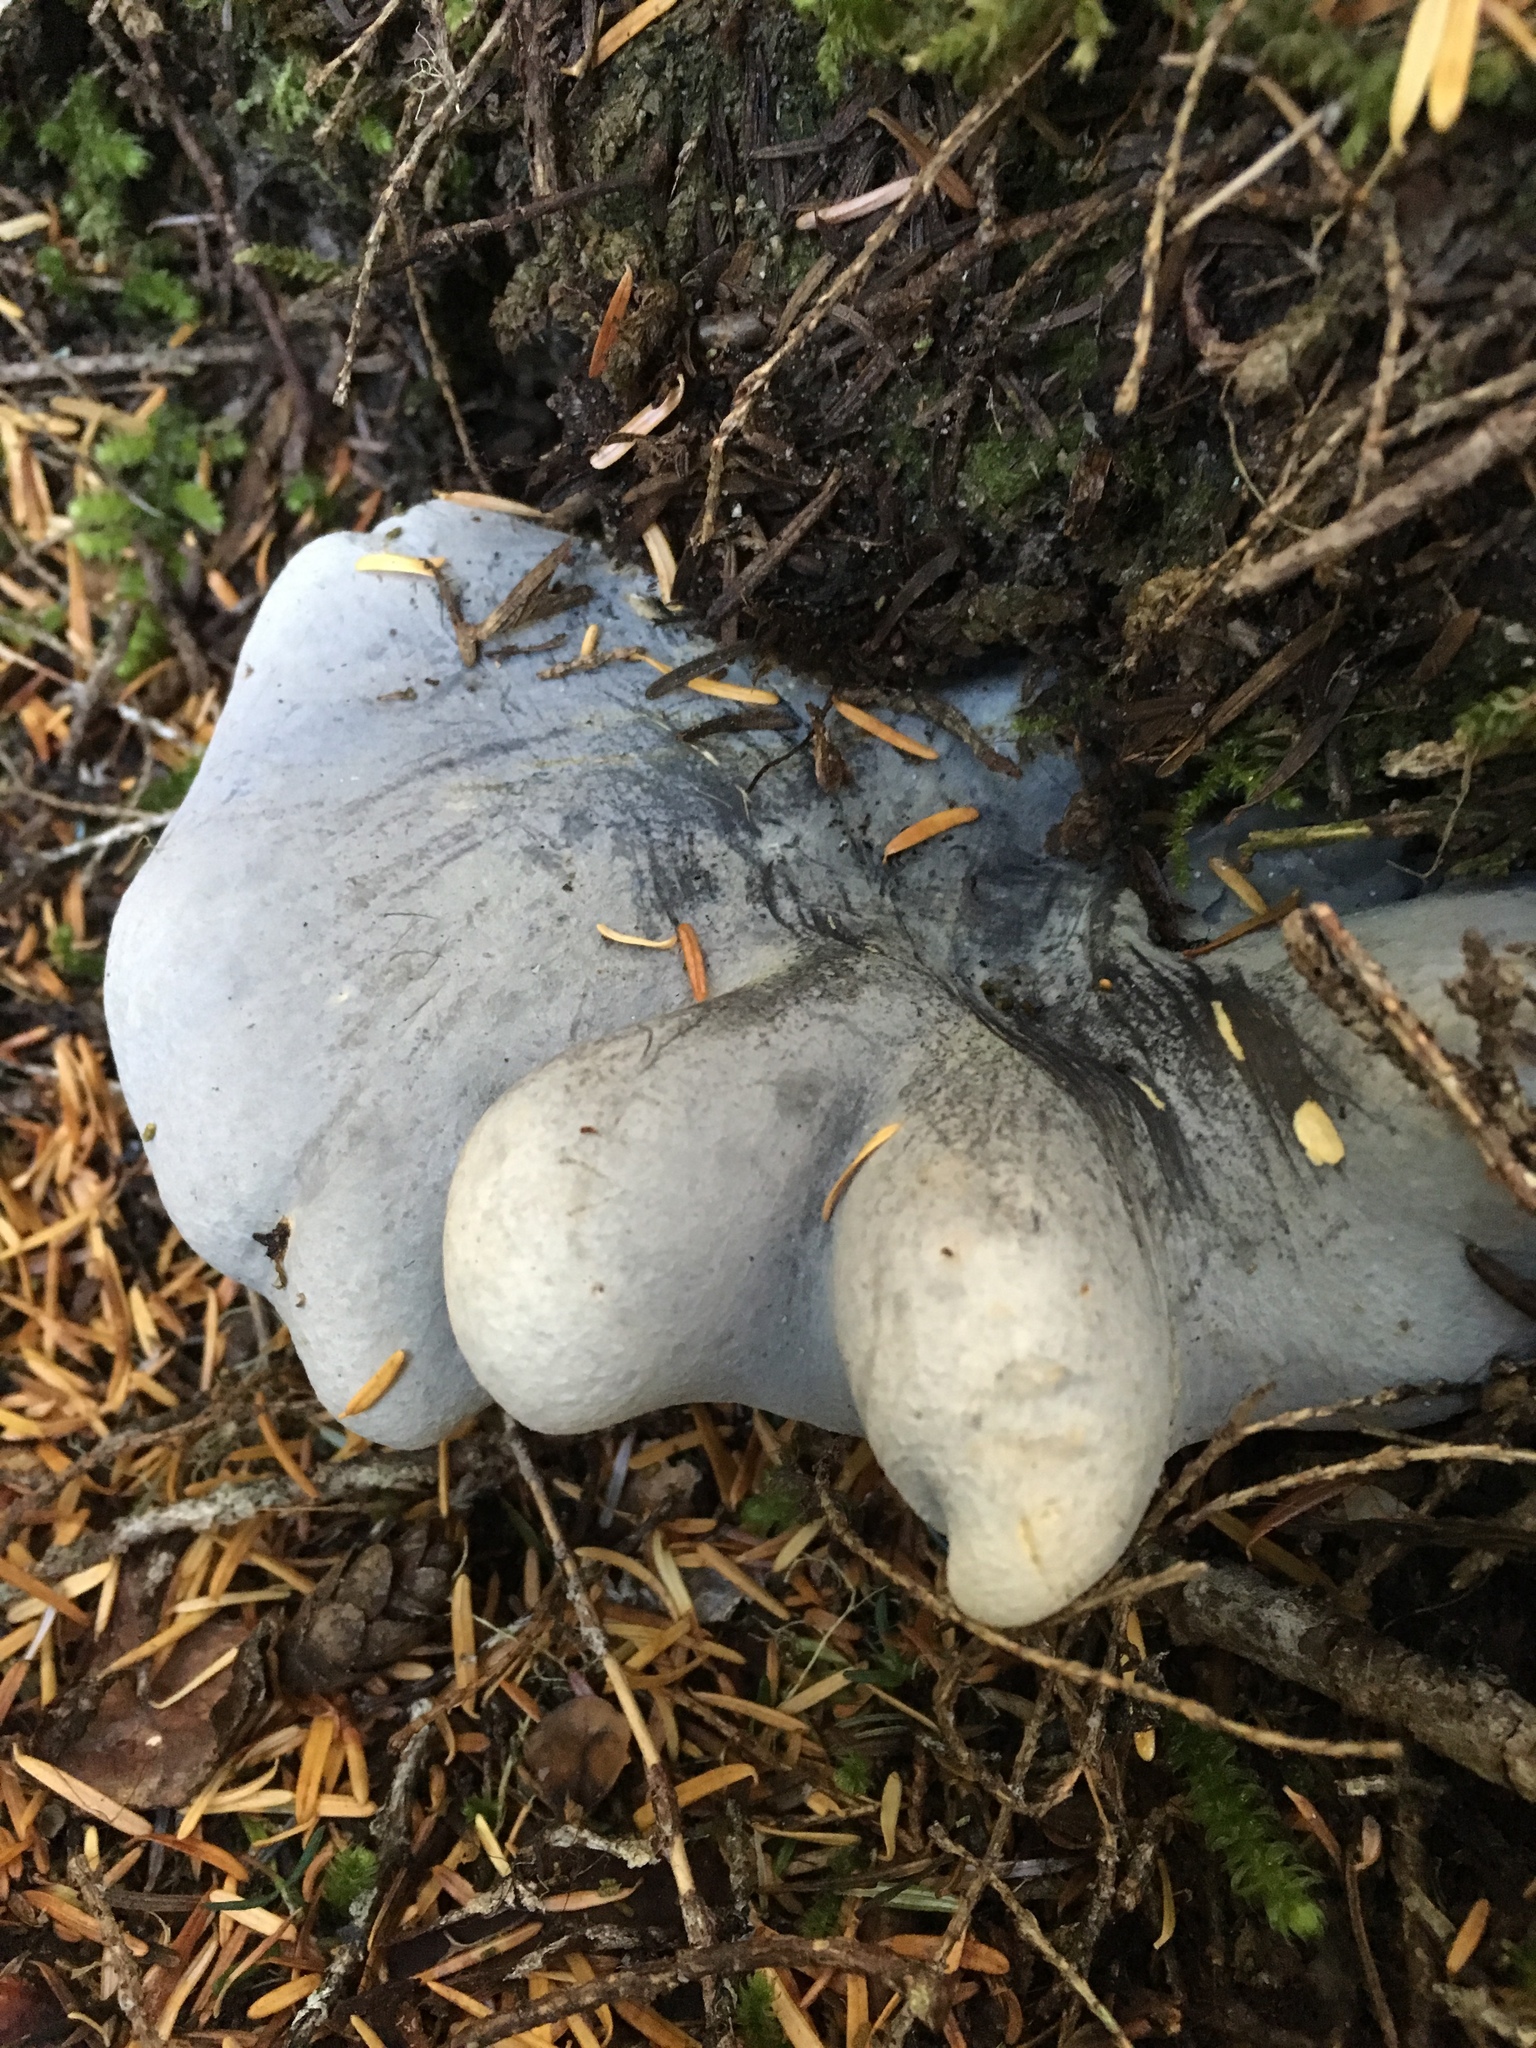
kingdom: Fungi
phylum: Basidiomycota
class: Agaricomycetes
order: Russulales
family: Albatrellaceae
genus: Albatrellopsis
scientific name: Albatrellopsis flettii
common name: Blue polypore
